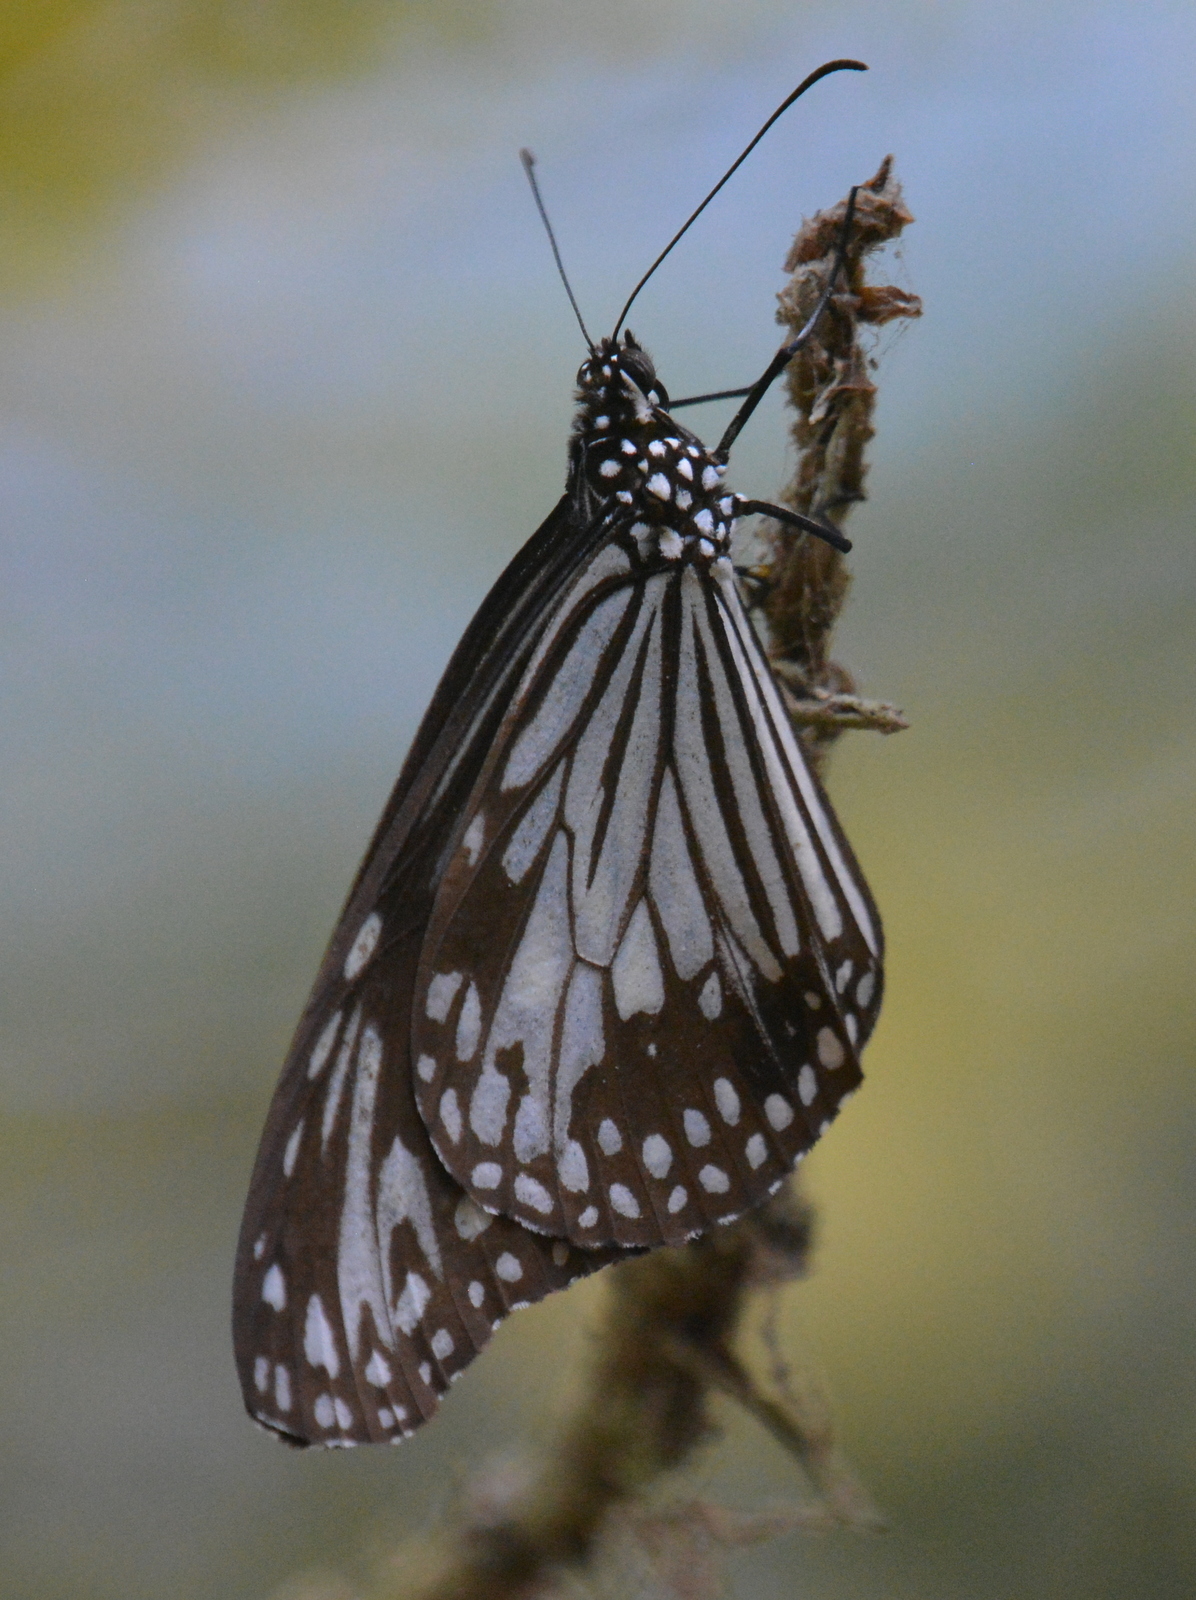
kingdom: Animalia
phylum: Arthropoda
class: Insecta
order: Lepidoptera
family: Nymphalidae
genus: Parantica
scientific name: Parantica aglea
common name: Glassy tiger
